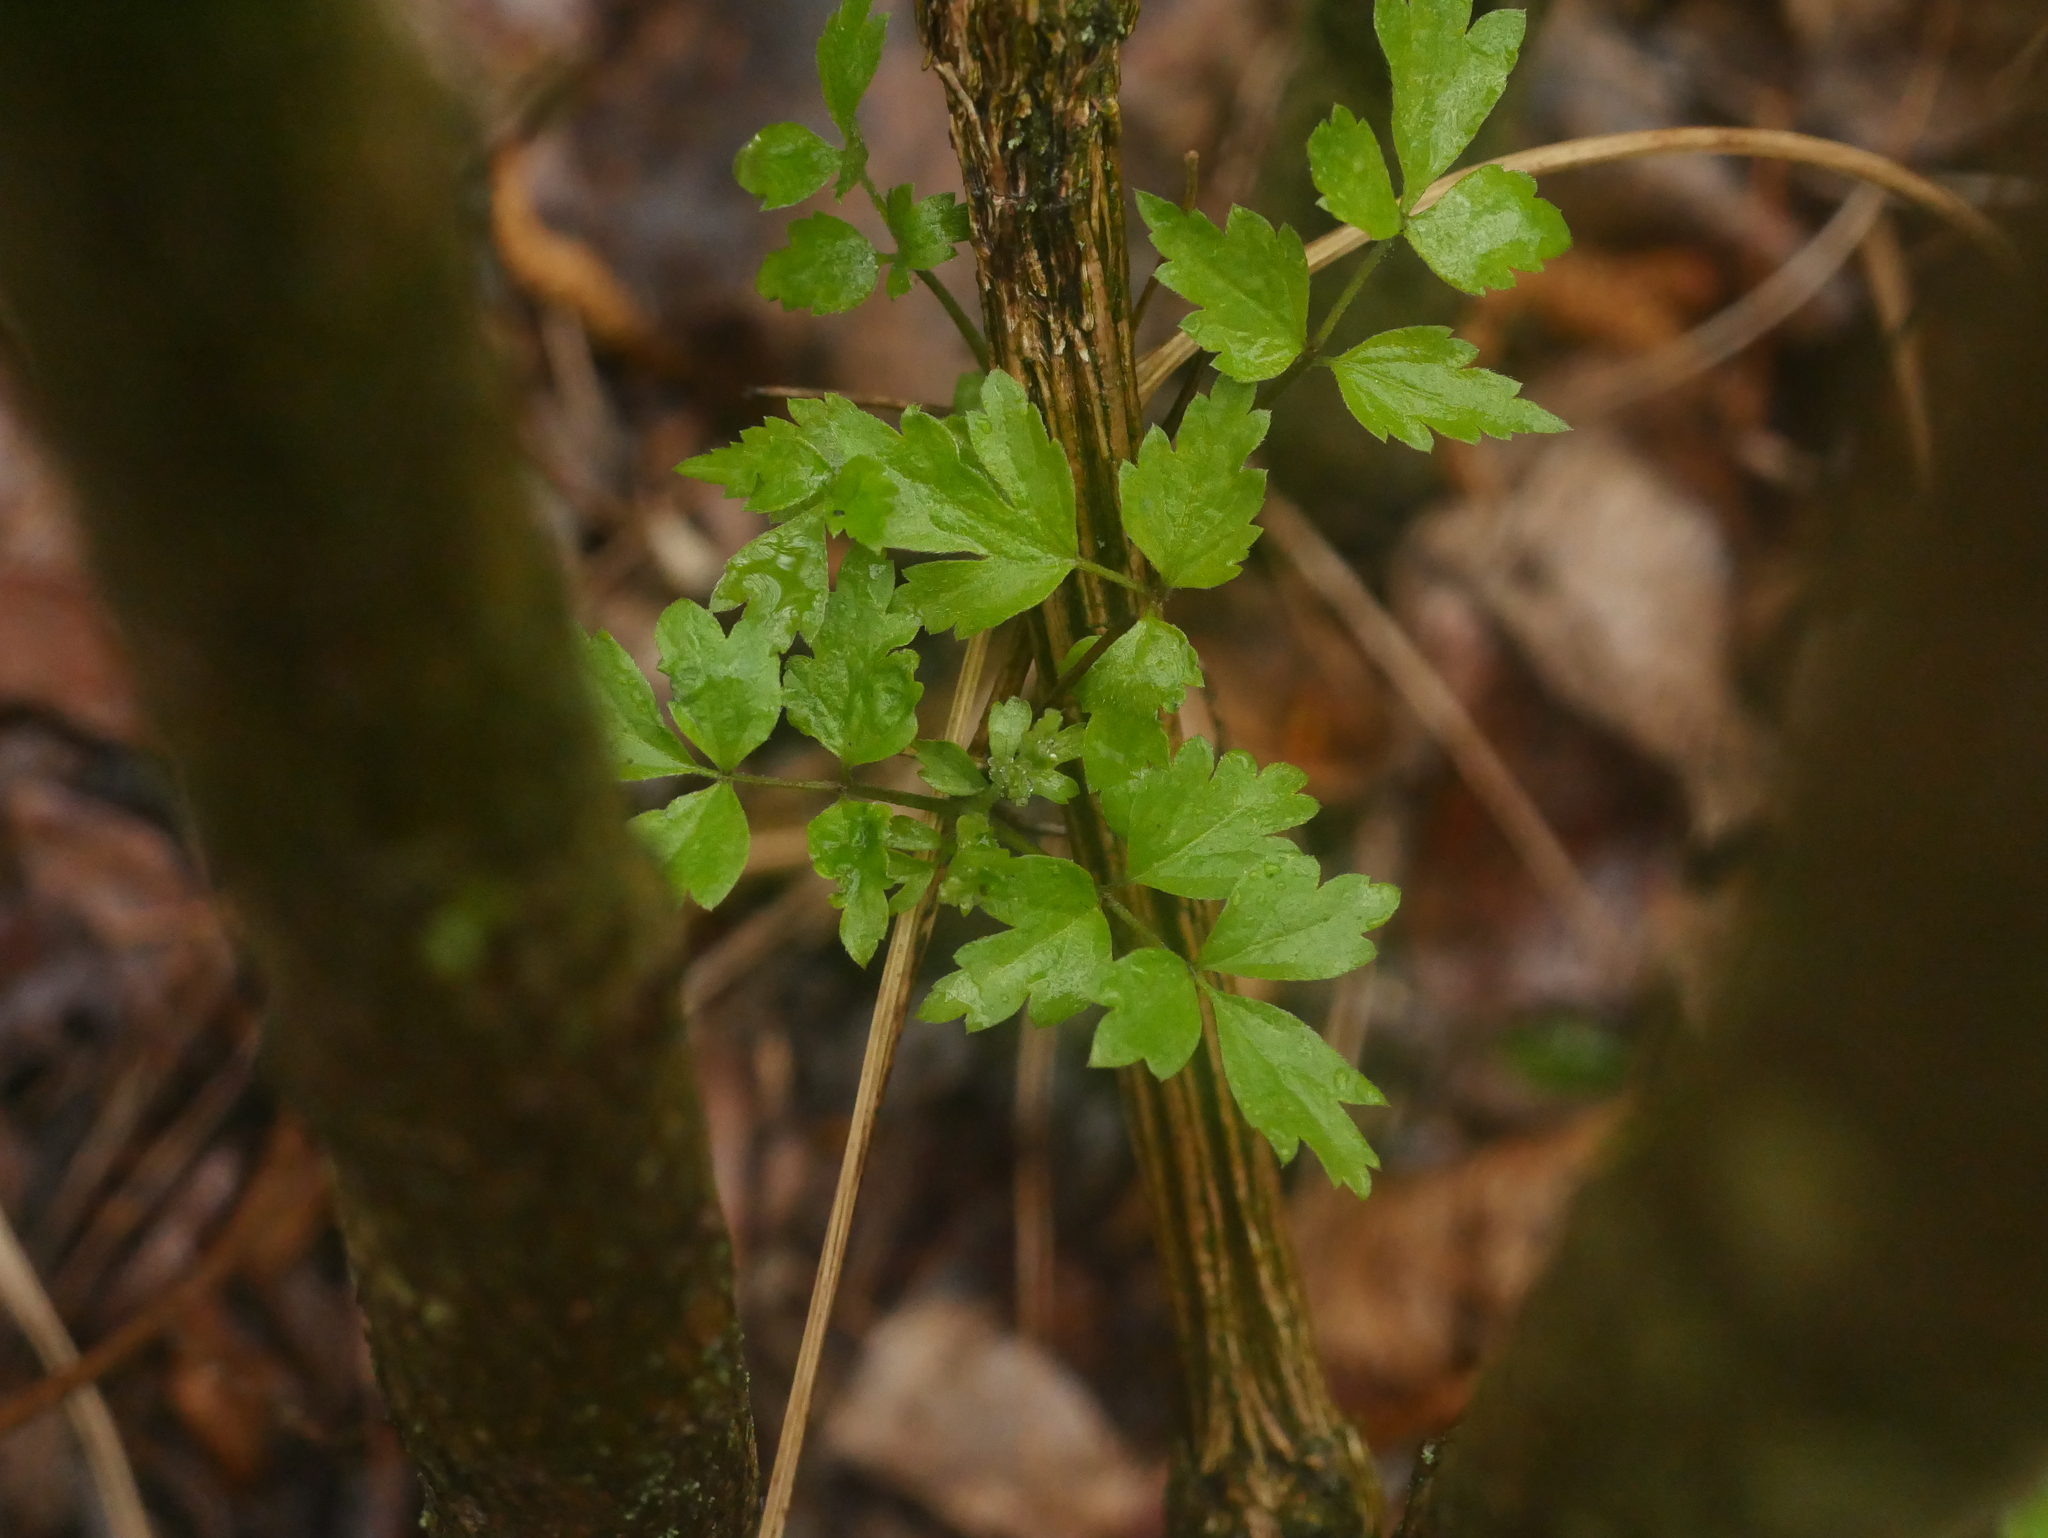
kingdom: Plantae
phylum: Tracheophyta
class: Magnoliopsida
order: Ranunculales
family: Ranunculaceae
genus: Clematis
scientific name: Clematis vitalba
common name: Evergreen clematis
